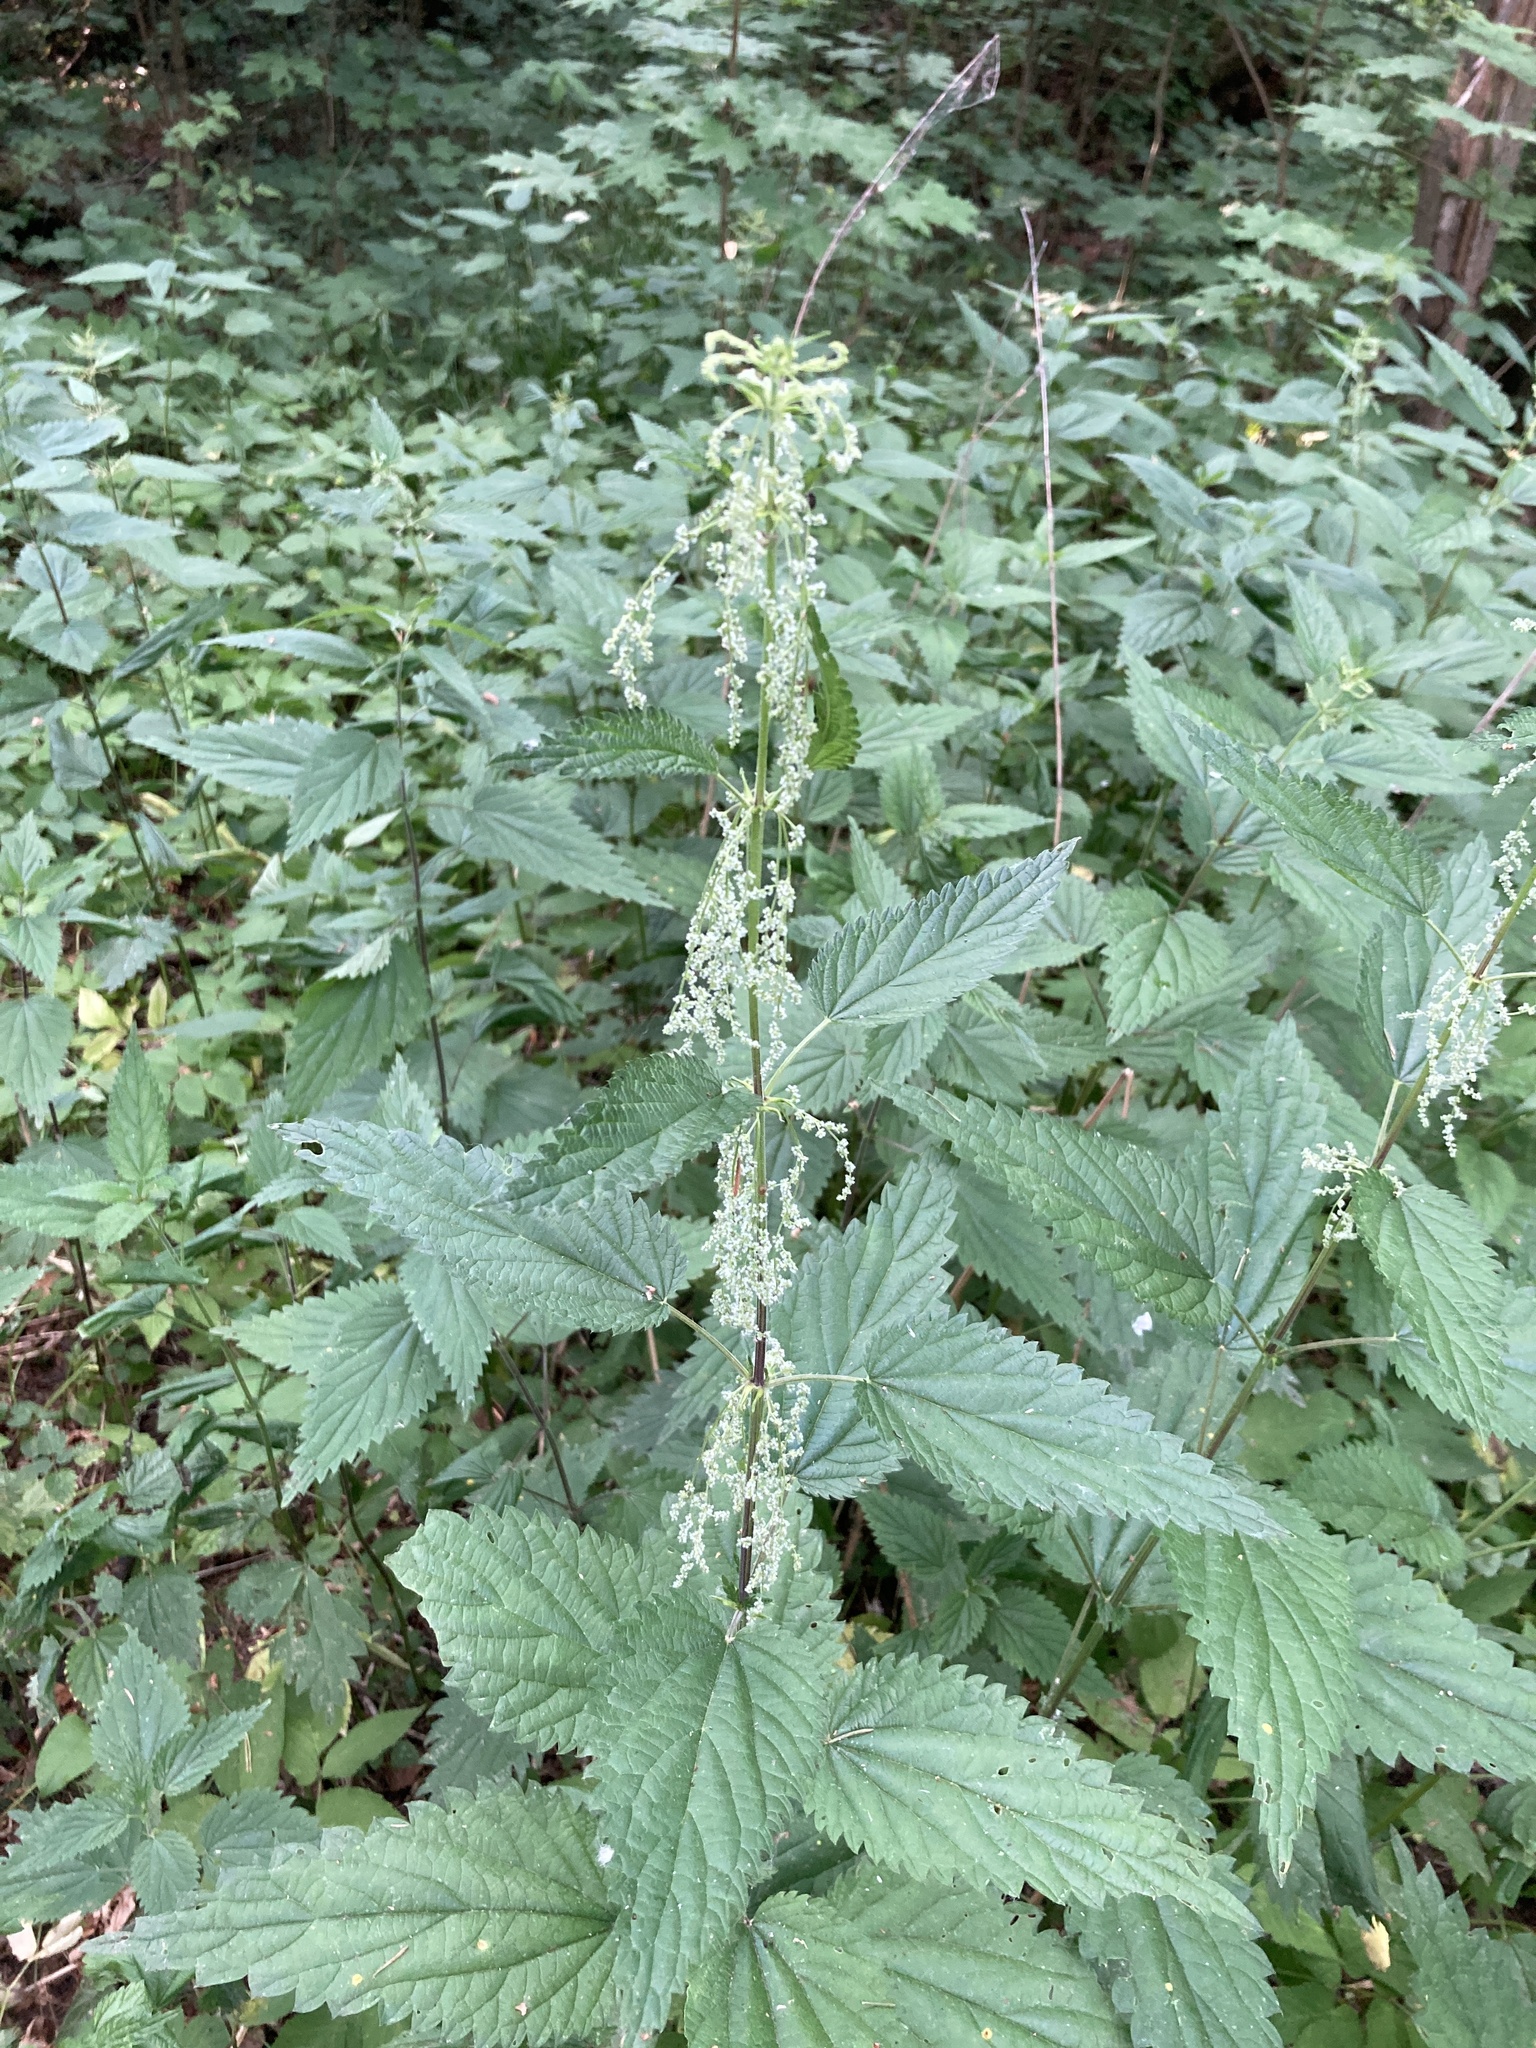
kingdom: Plantae
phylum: Tracheophyta
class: Magnoliopsida
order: Rosales
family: Urticaceae
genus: Urtica
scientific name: Urtica dioica
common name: Common nettle
